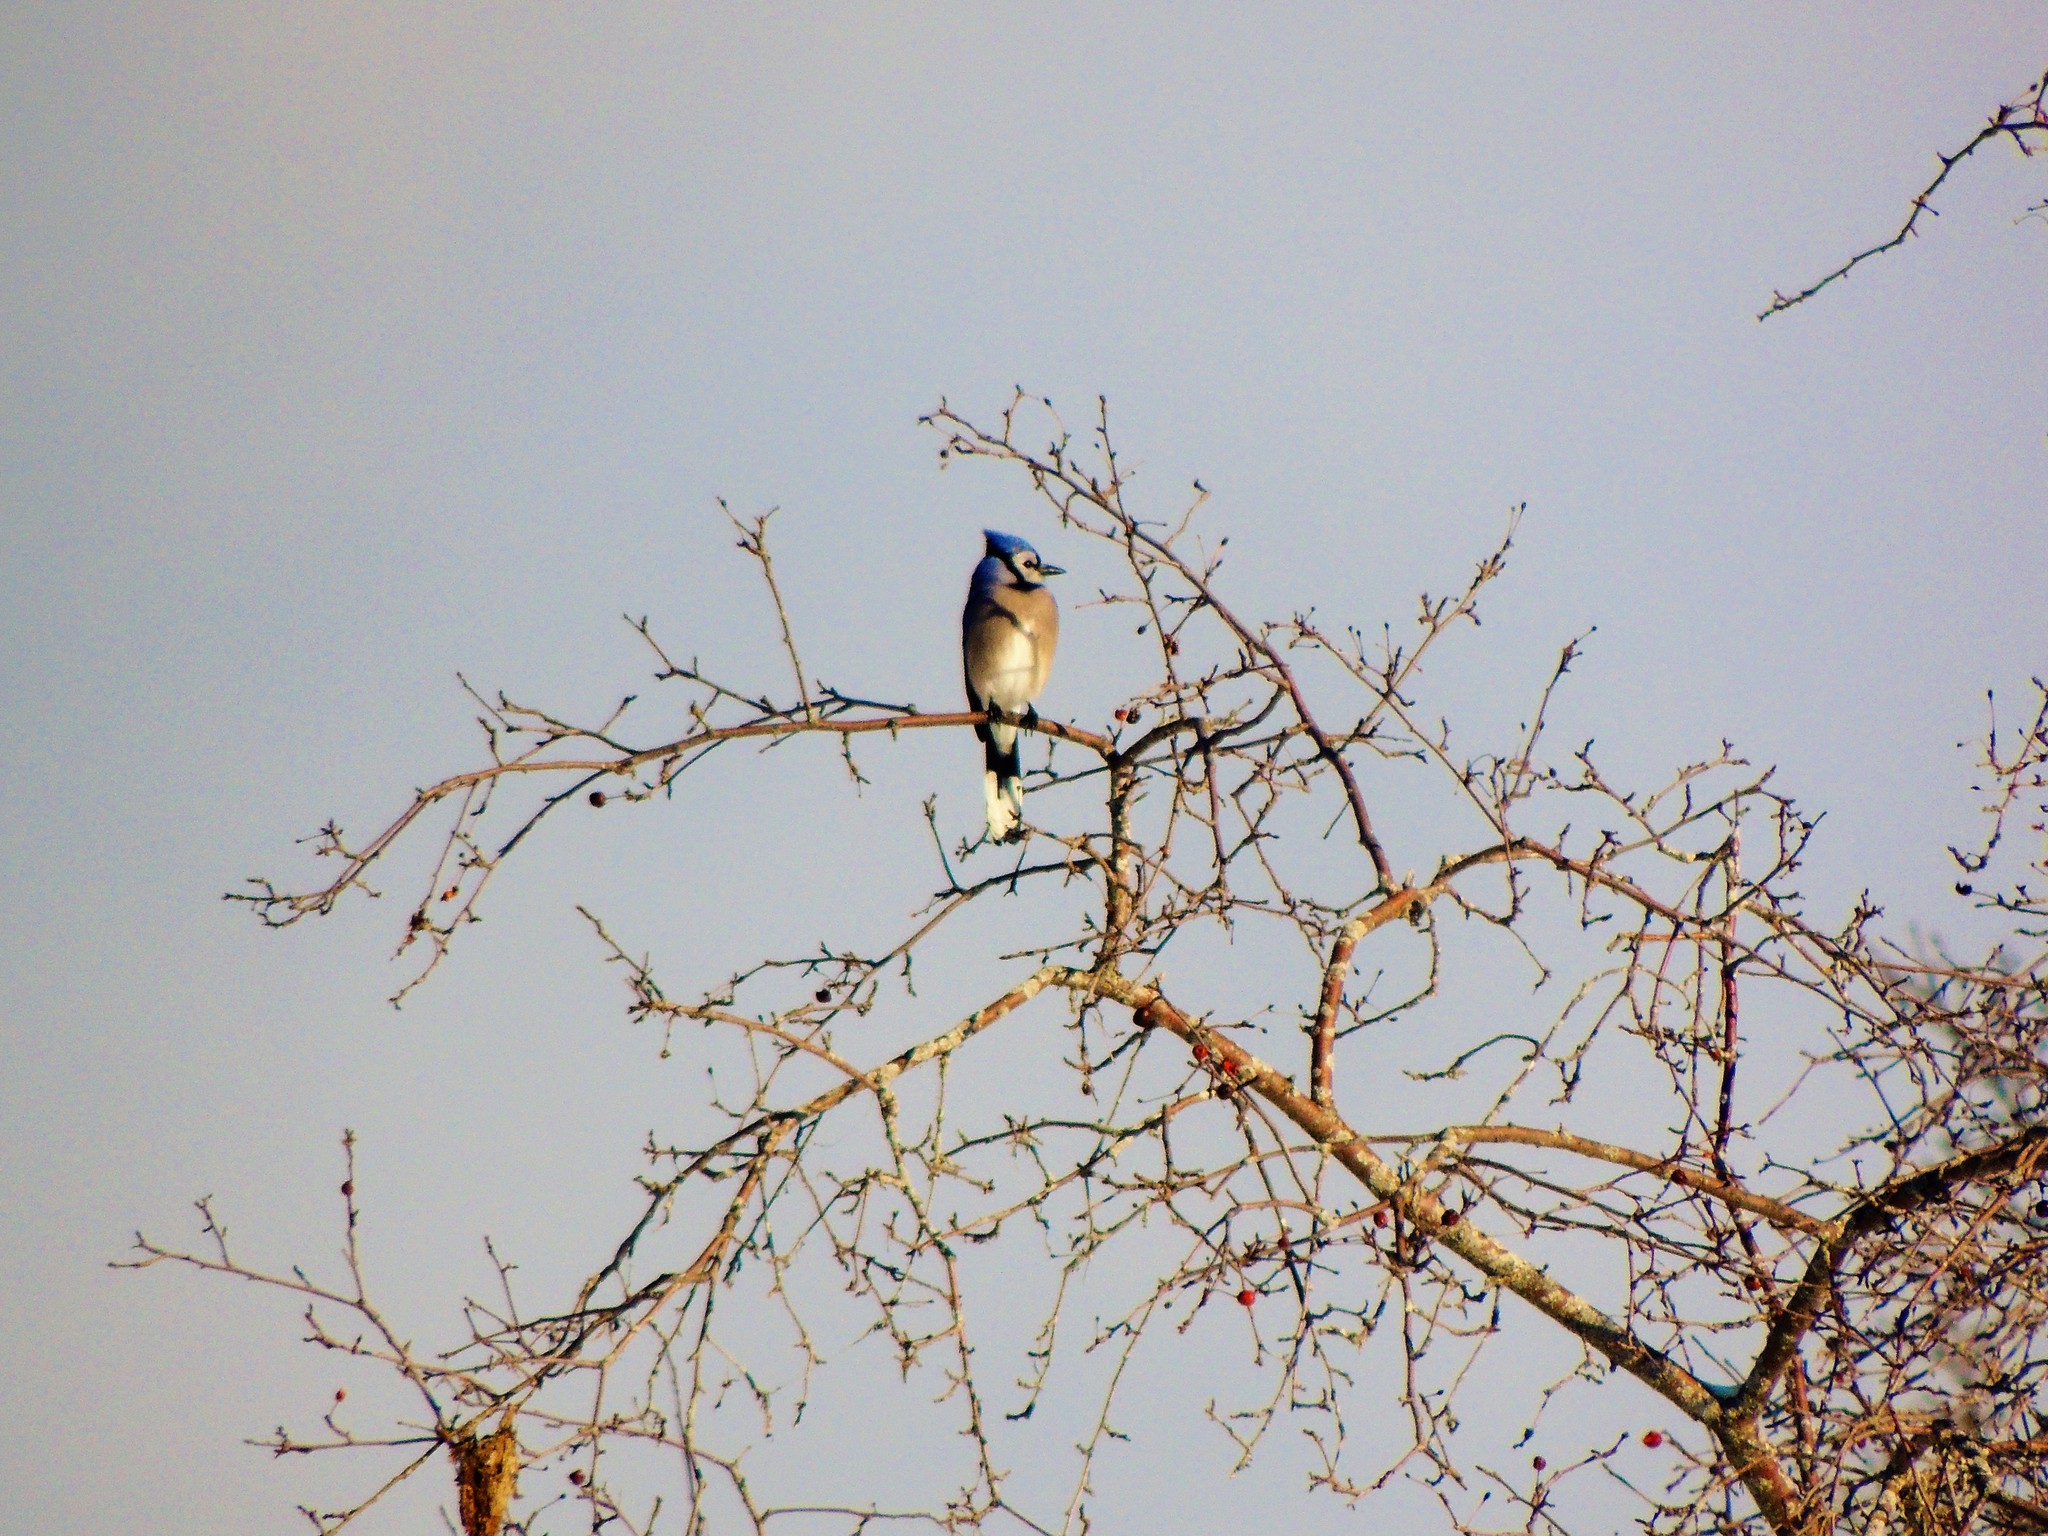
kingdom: Animalia
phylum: Chordata
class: Aves
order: Passeriformes
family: Corvidae
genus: Cyanocitta
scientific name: Cyanocitta cristata
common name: Blue jay
